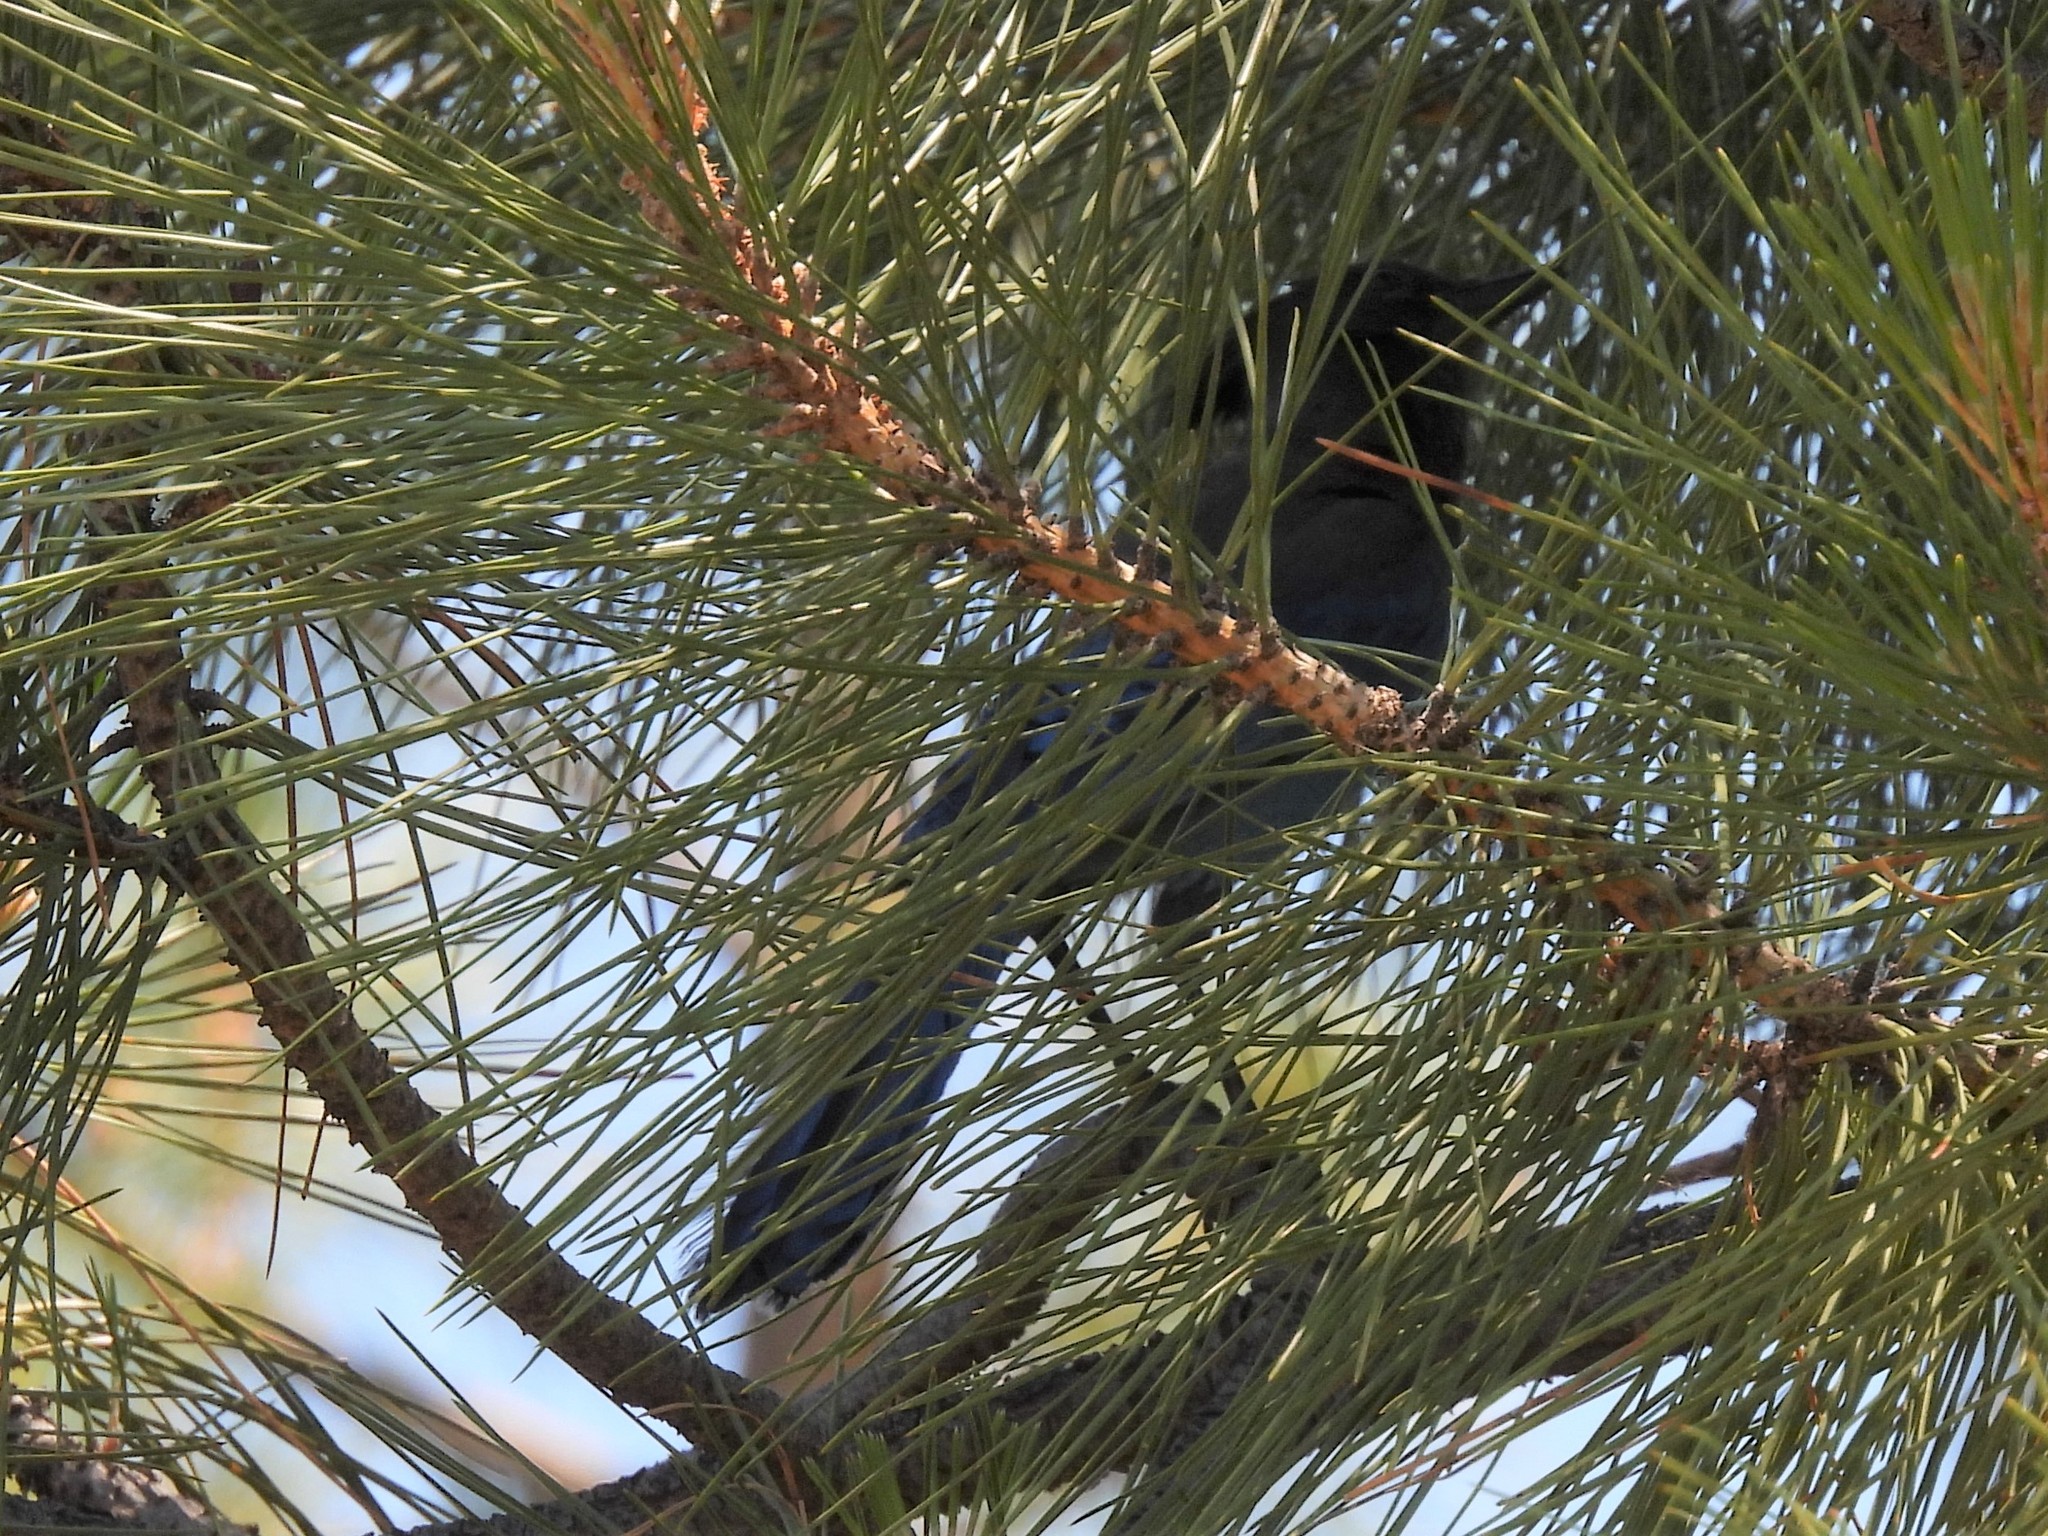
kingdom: Animalia
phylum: Chordata
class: Aves
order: Passeriformes
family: Corvidae
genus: Cyanocitta
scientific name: Cyanocitta stelleri
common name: Steller's jay
